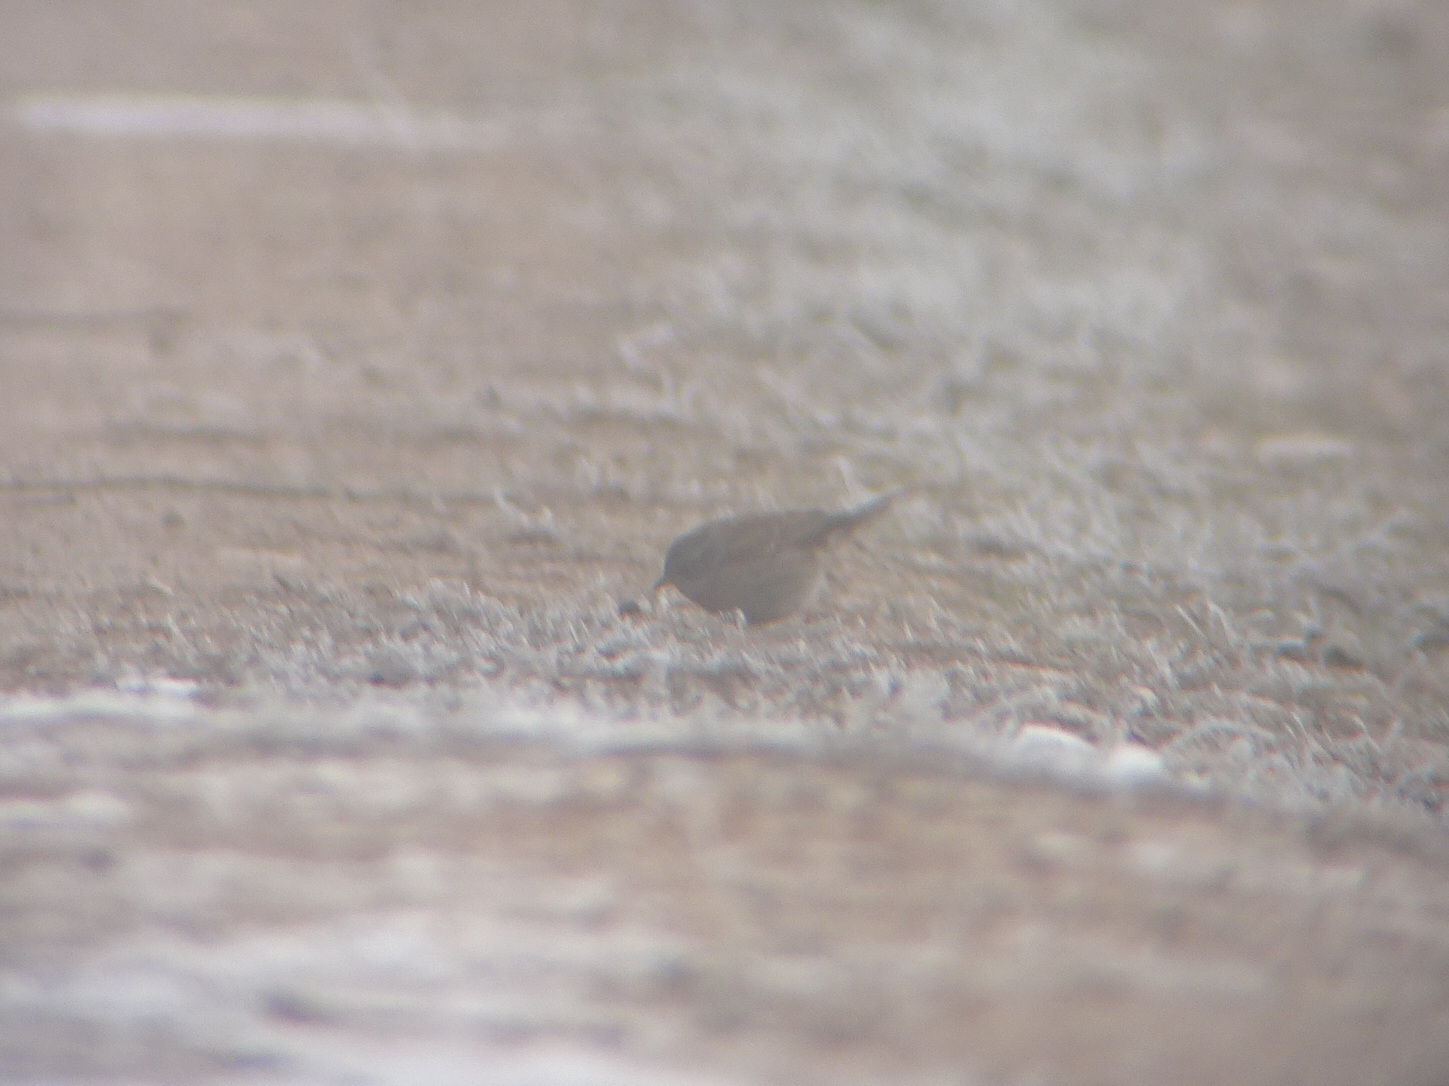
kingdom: Animalia
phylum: Chordata
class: Aves
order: Passeriformes
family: Prunellidae
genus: Prunella
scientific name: Prunella modularis
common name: Dunnock
